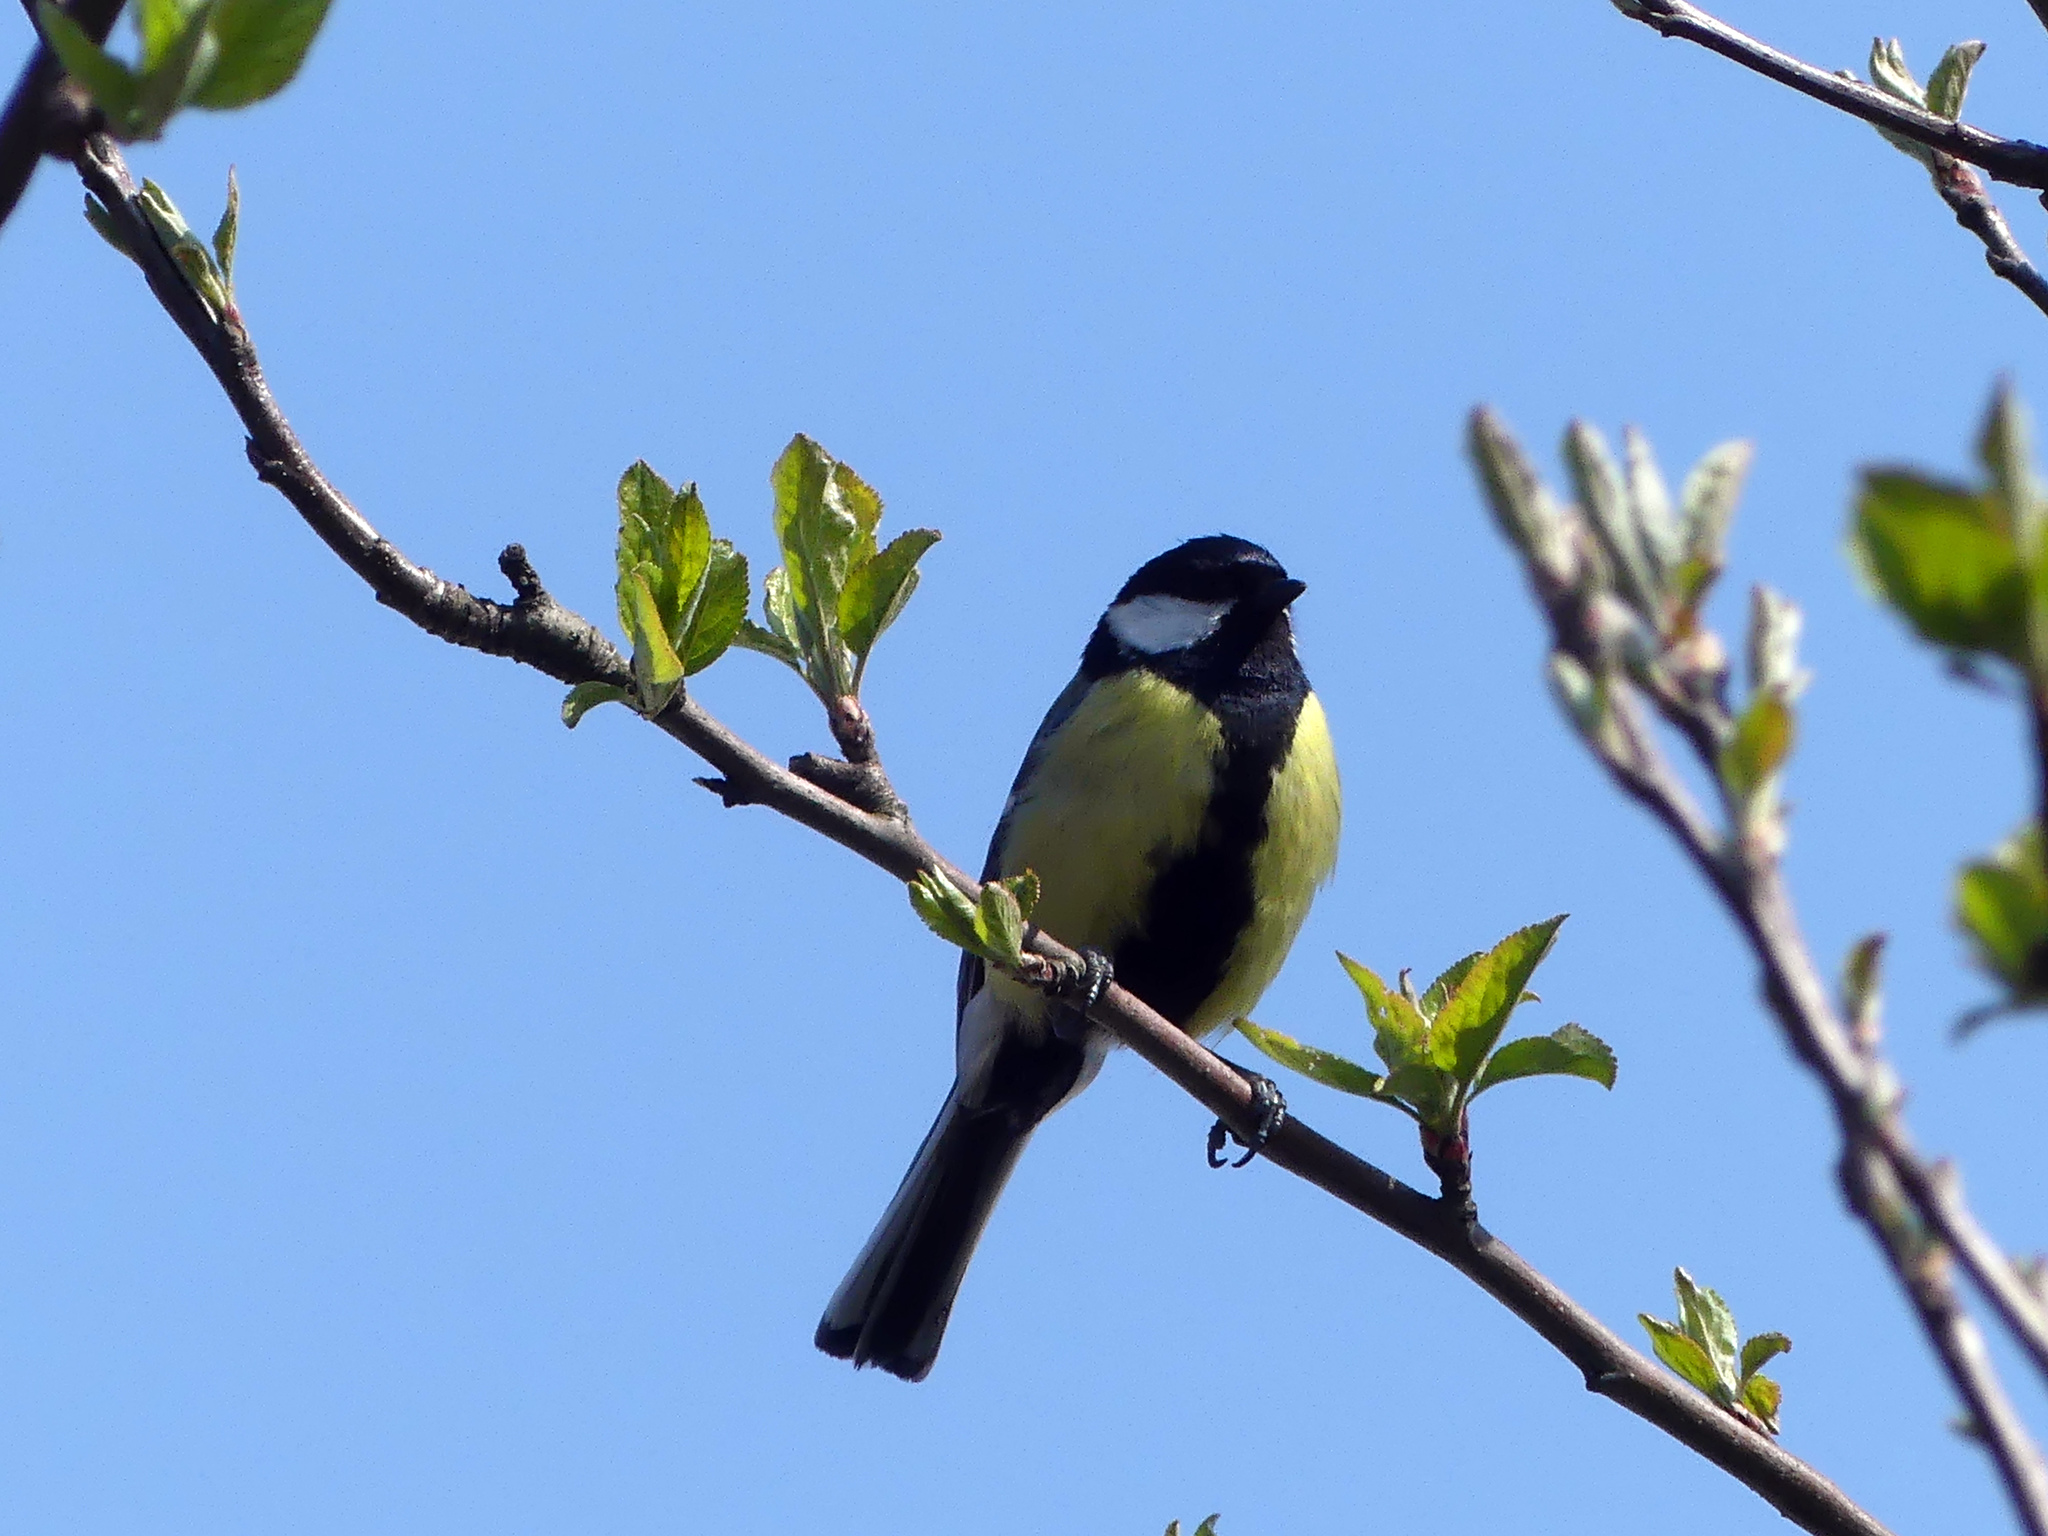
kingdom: Animalia
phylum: Chordata
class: Aves
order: Passeriformes
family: Paridae
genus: Parus
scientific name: Parus major
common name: Great tit
